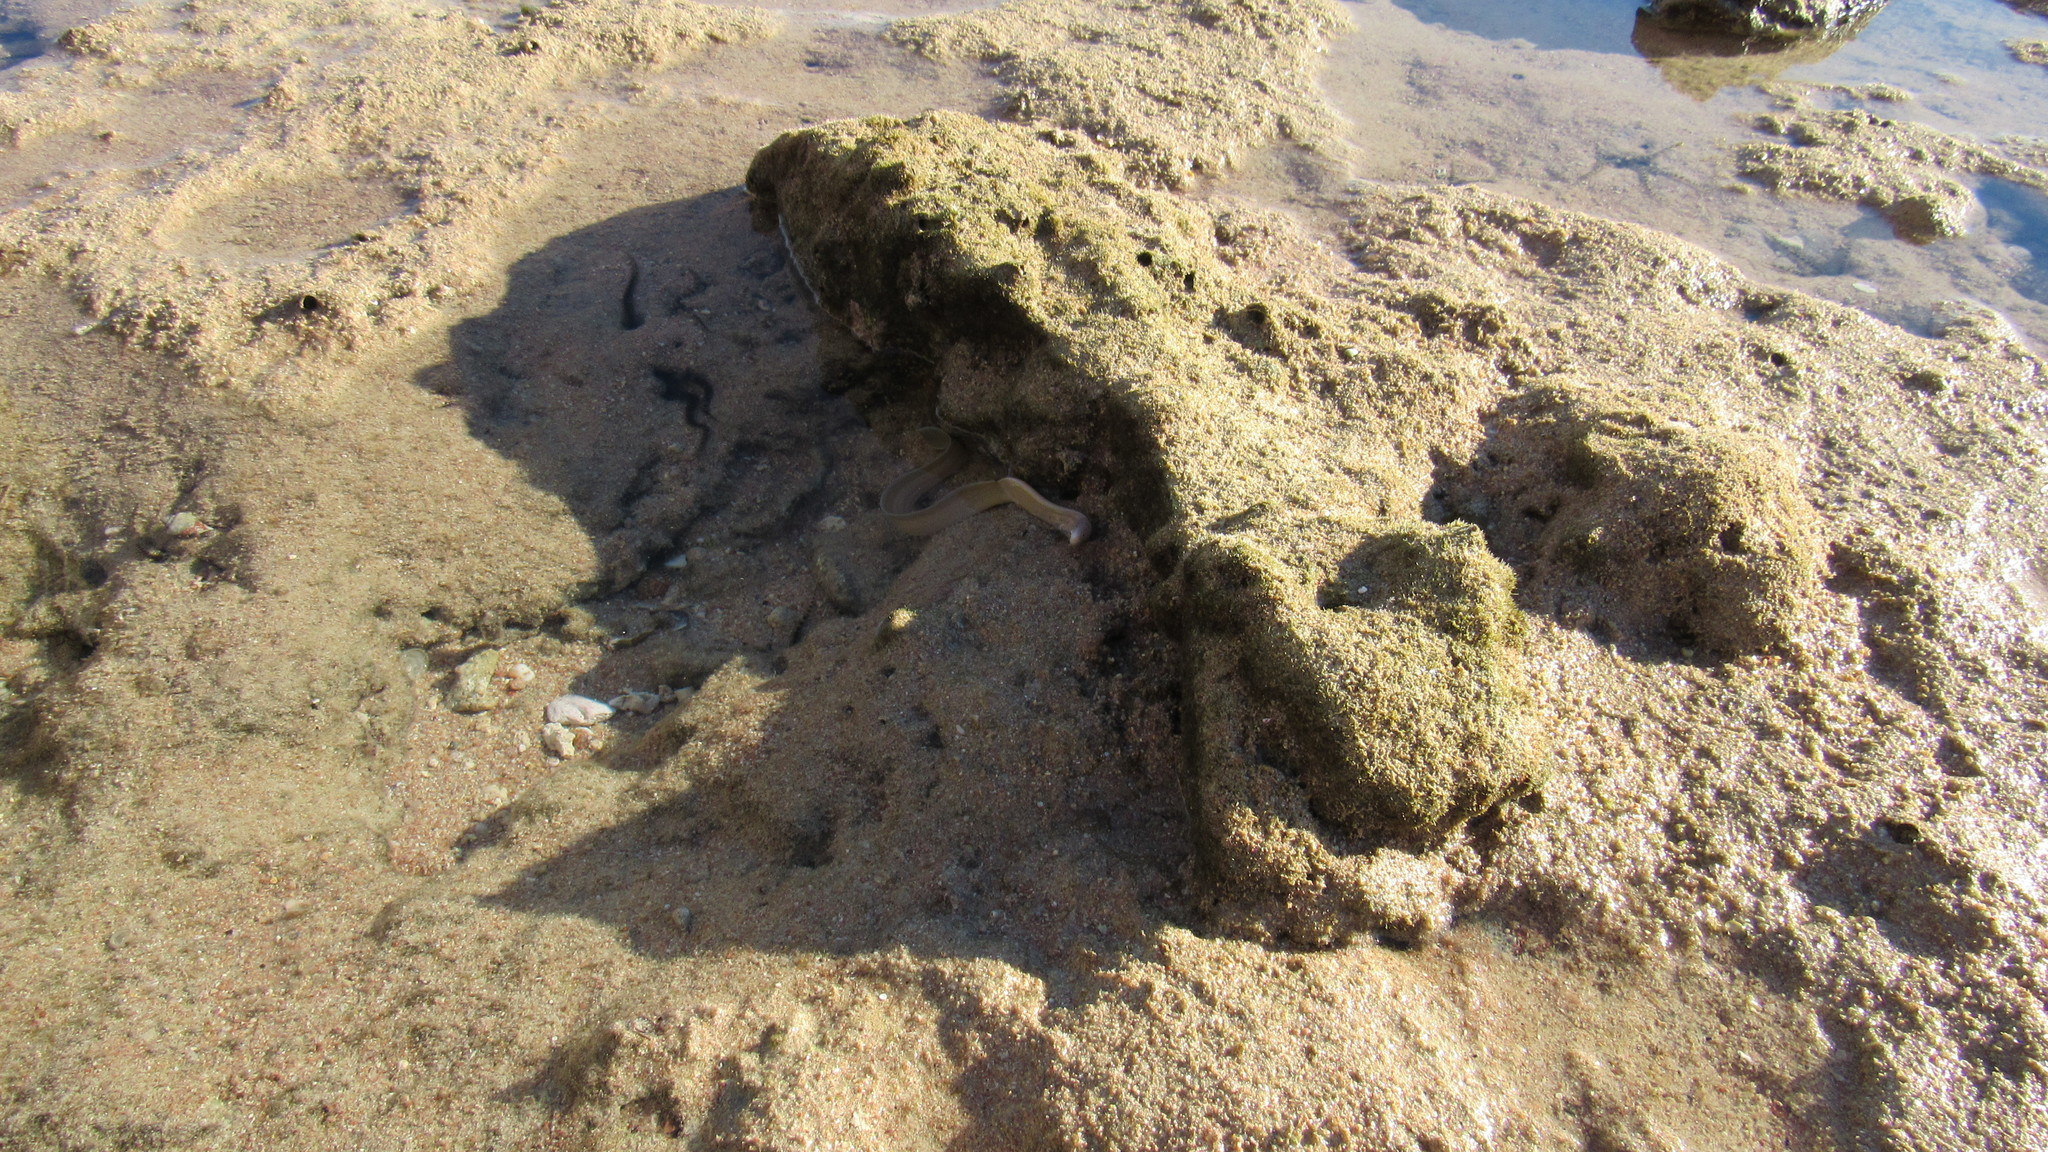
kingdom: Animalia
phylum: Chordata
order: Anguilliformes
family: Muraenidae
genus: Gymnothorax
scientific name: Gymnothorax griseus
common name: Geometric moray
